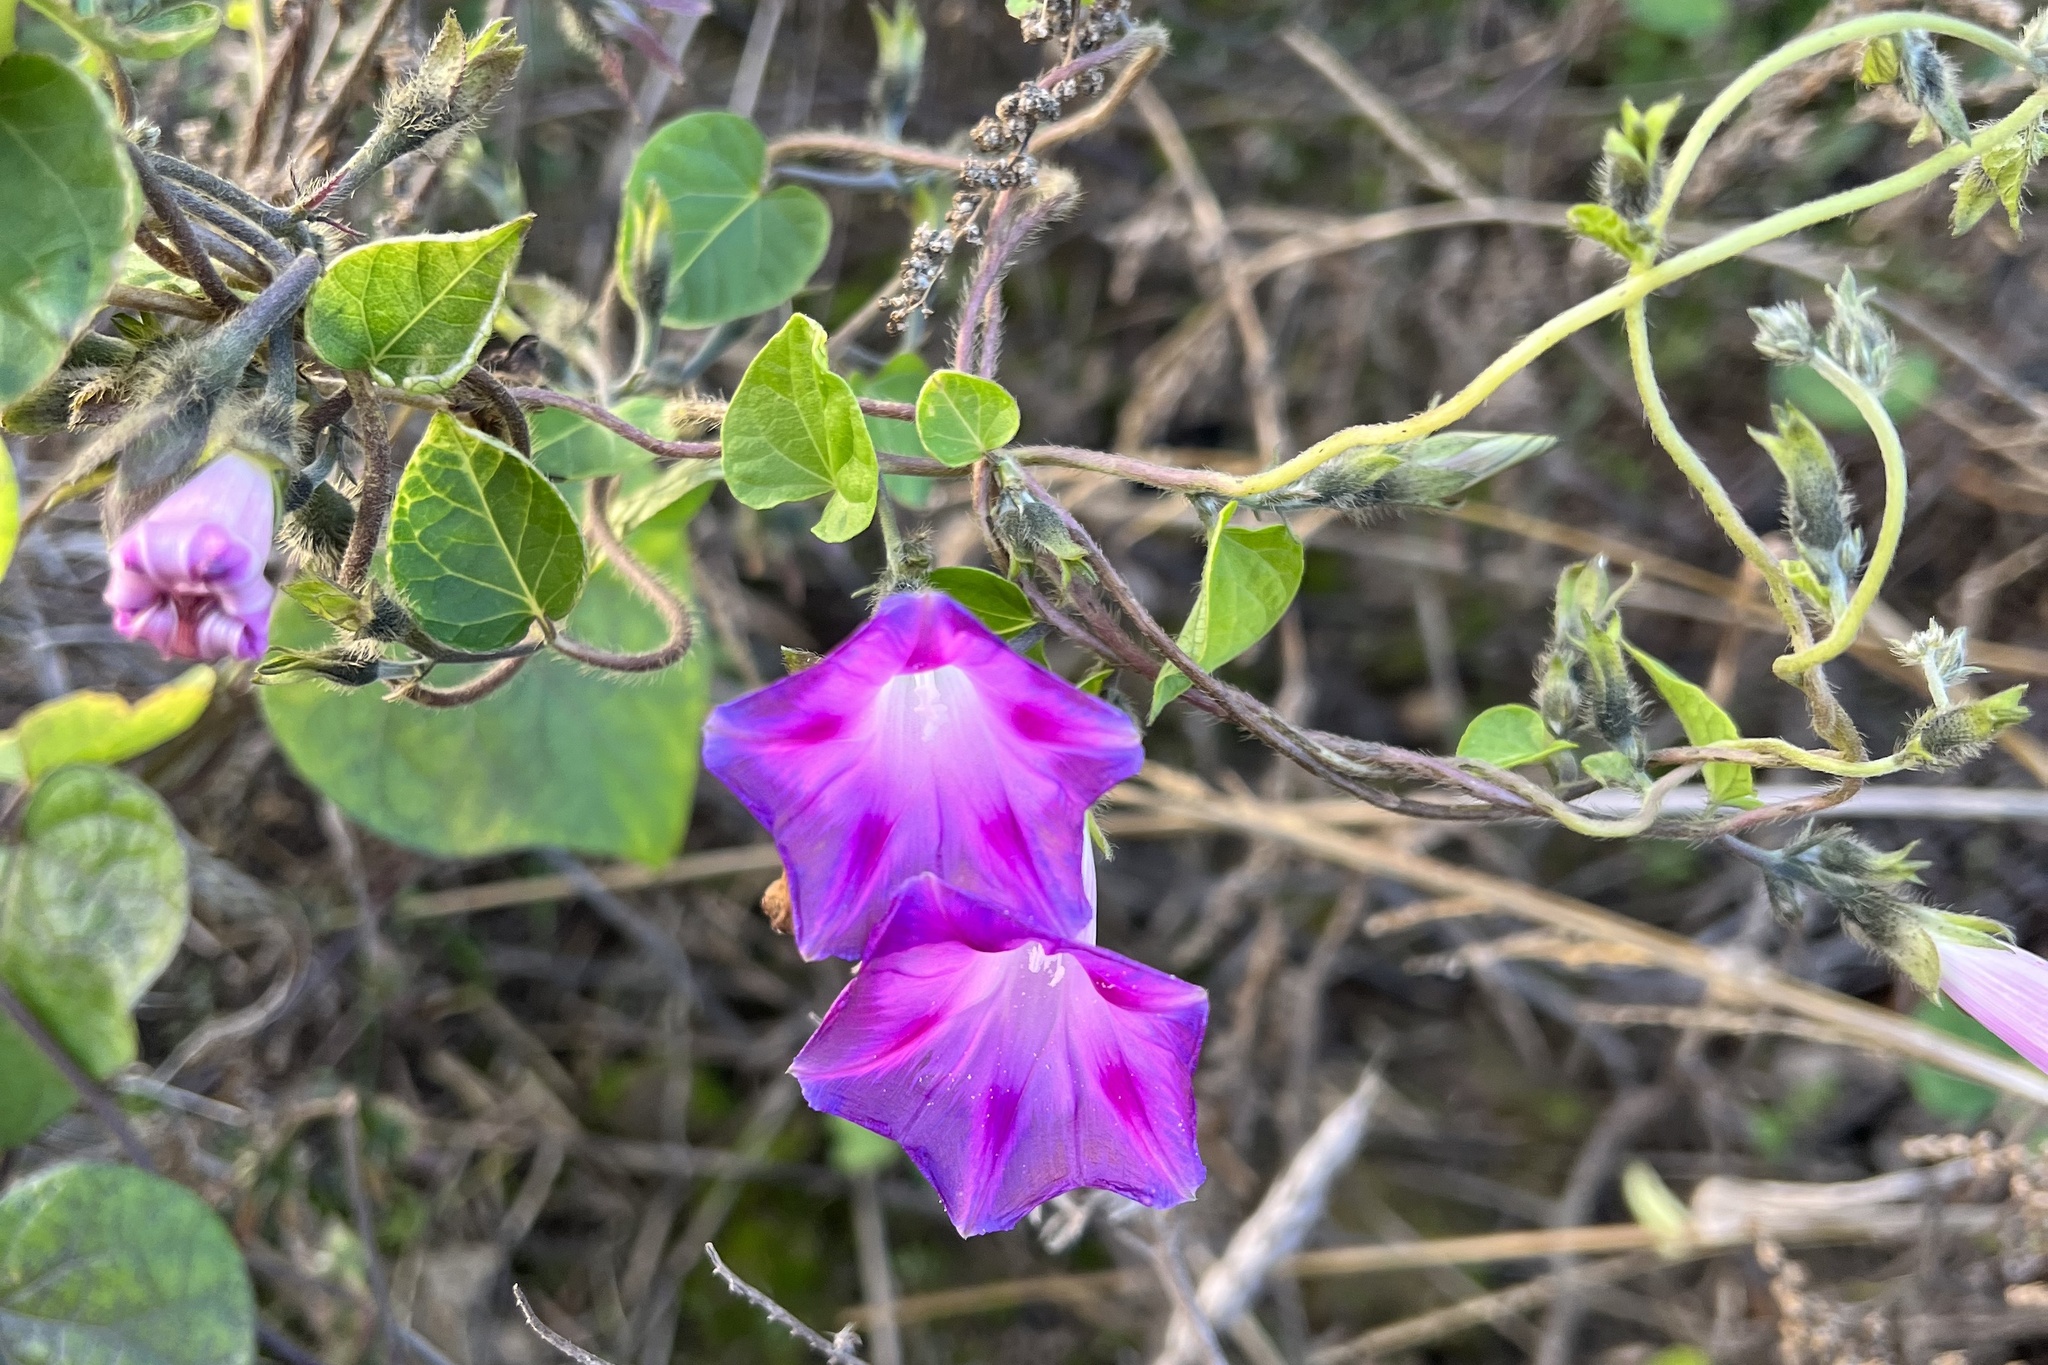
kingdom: Plantae
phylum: Tracheophyta
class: Magnoliopsida
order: Solanales
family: Convolvulaceae
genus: Ipomoea
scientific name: Ipomoea purpurea
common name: Common morning-glory
